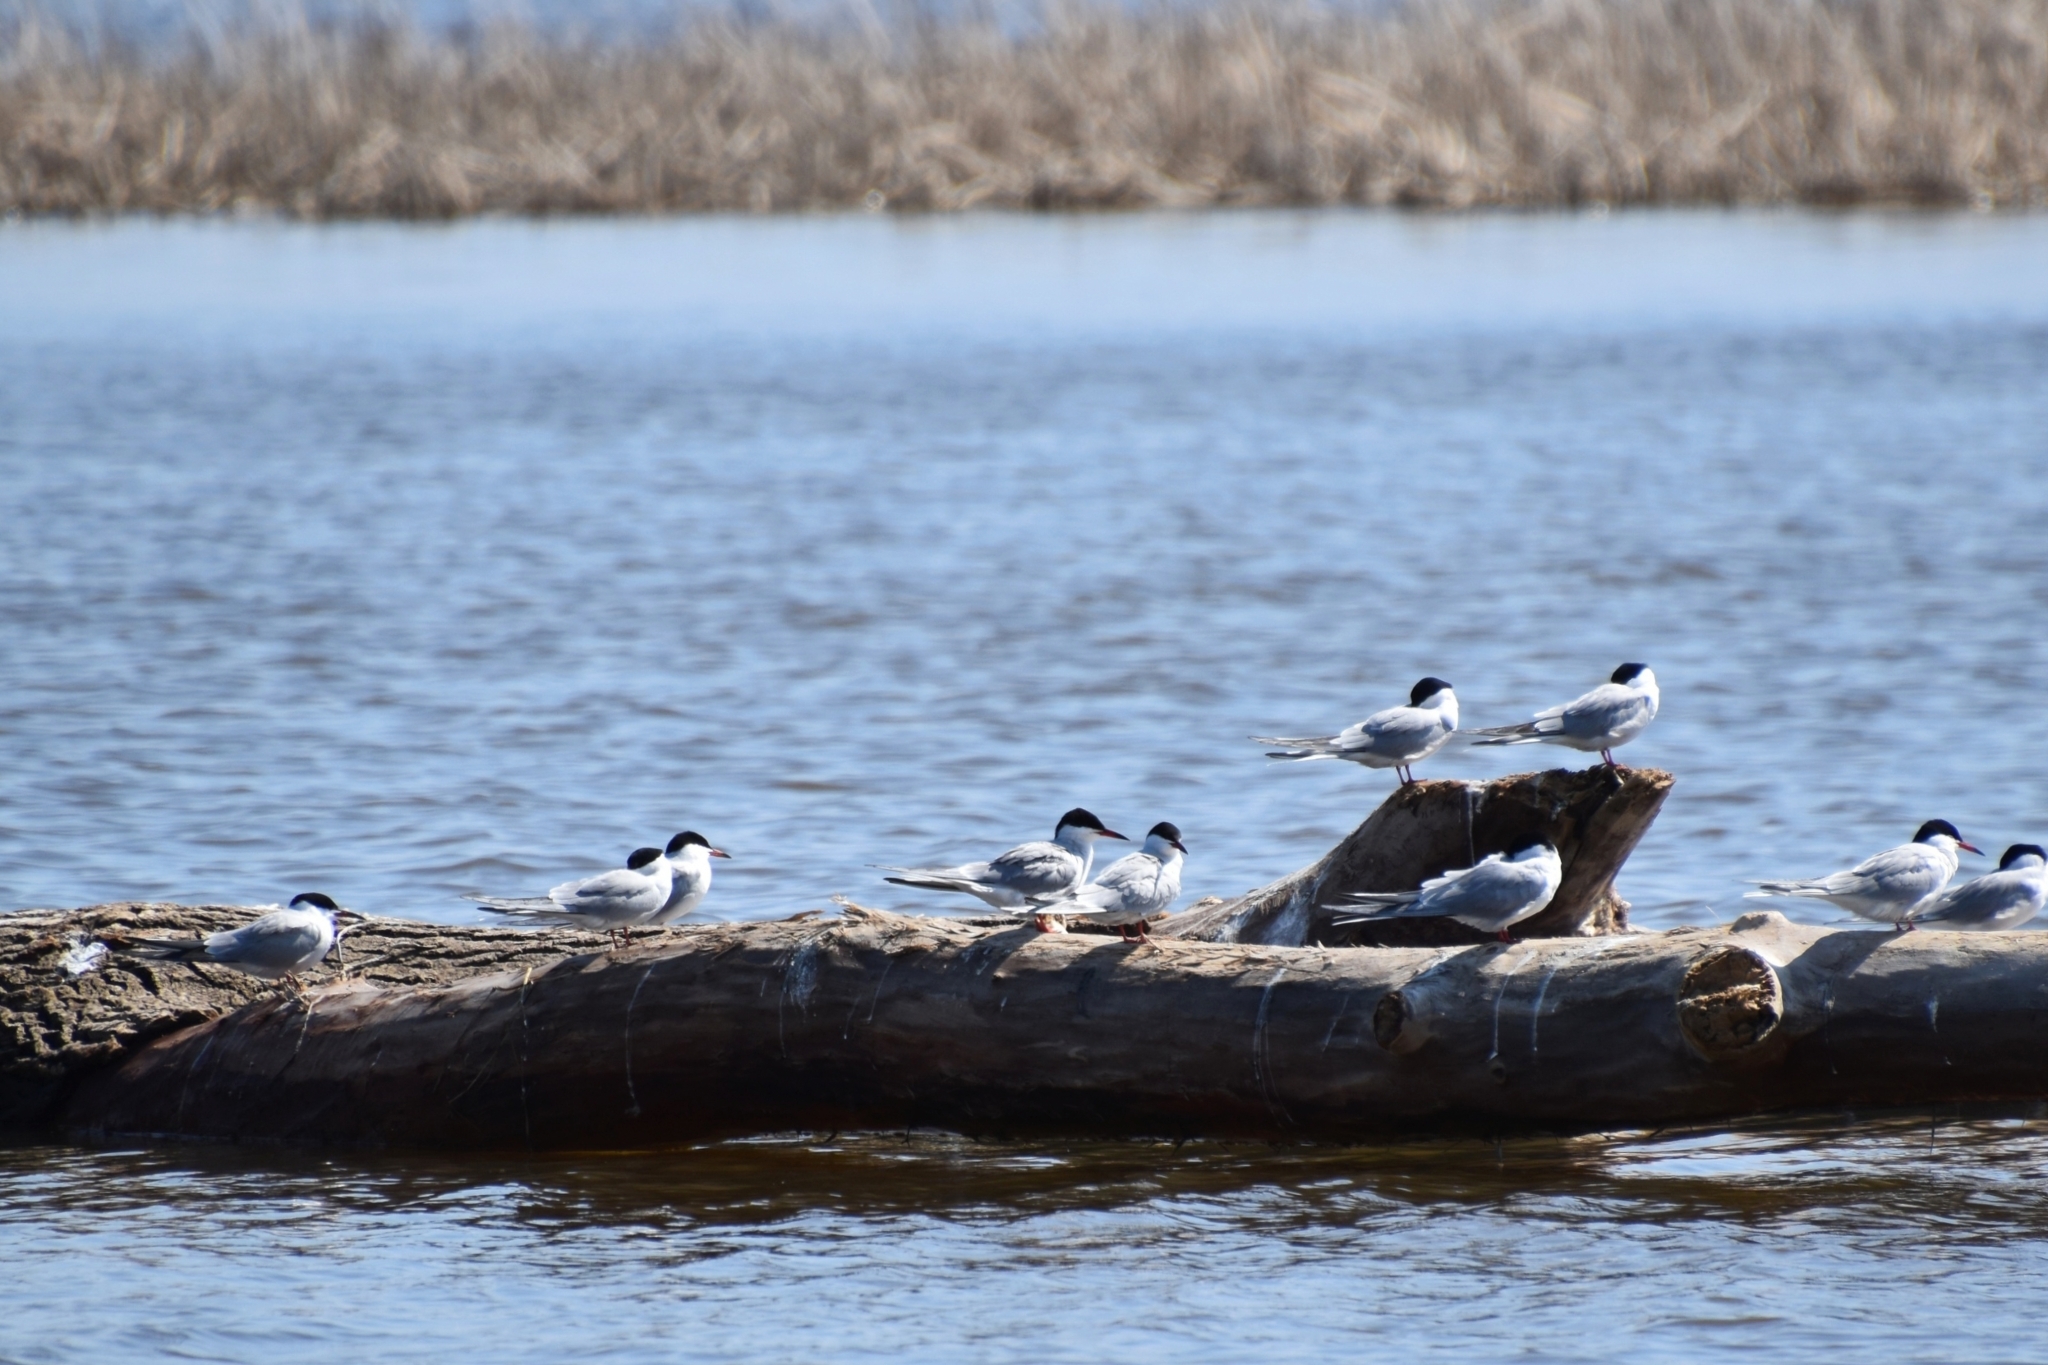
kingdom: Animalia
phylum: Chordata
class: Aves
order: Charadriiformes
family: Laridae
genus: Sterna
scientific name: Sterna hirundo
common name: Common tern
